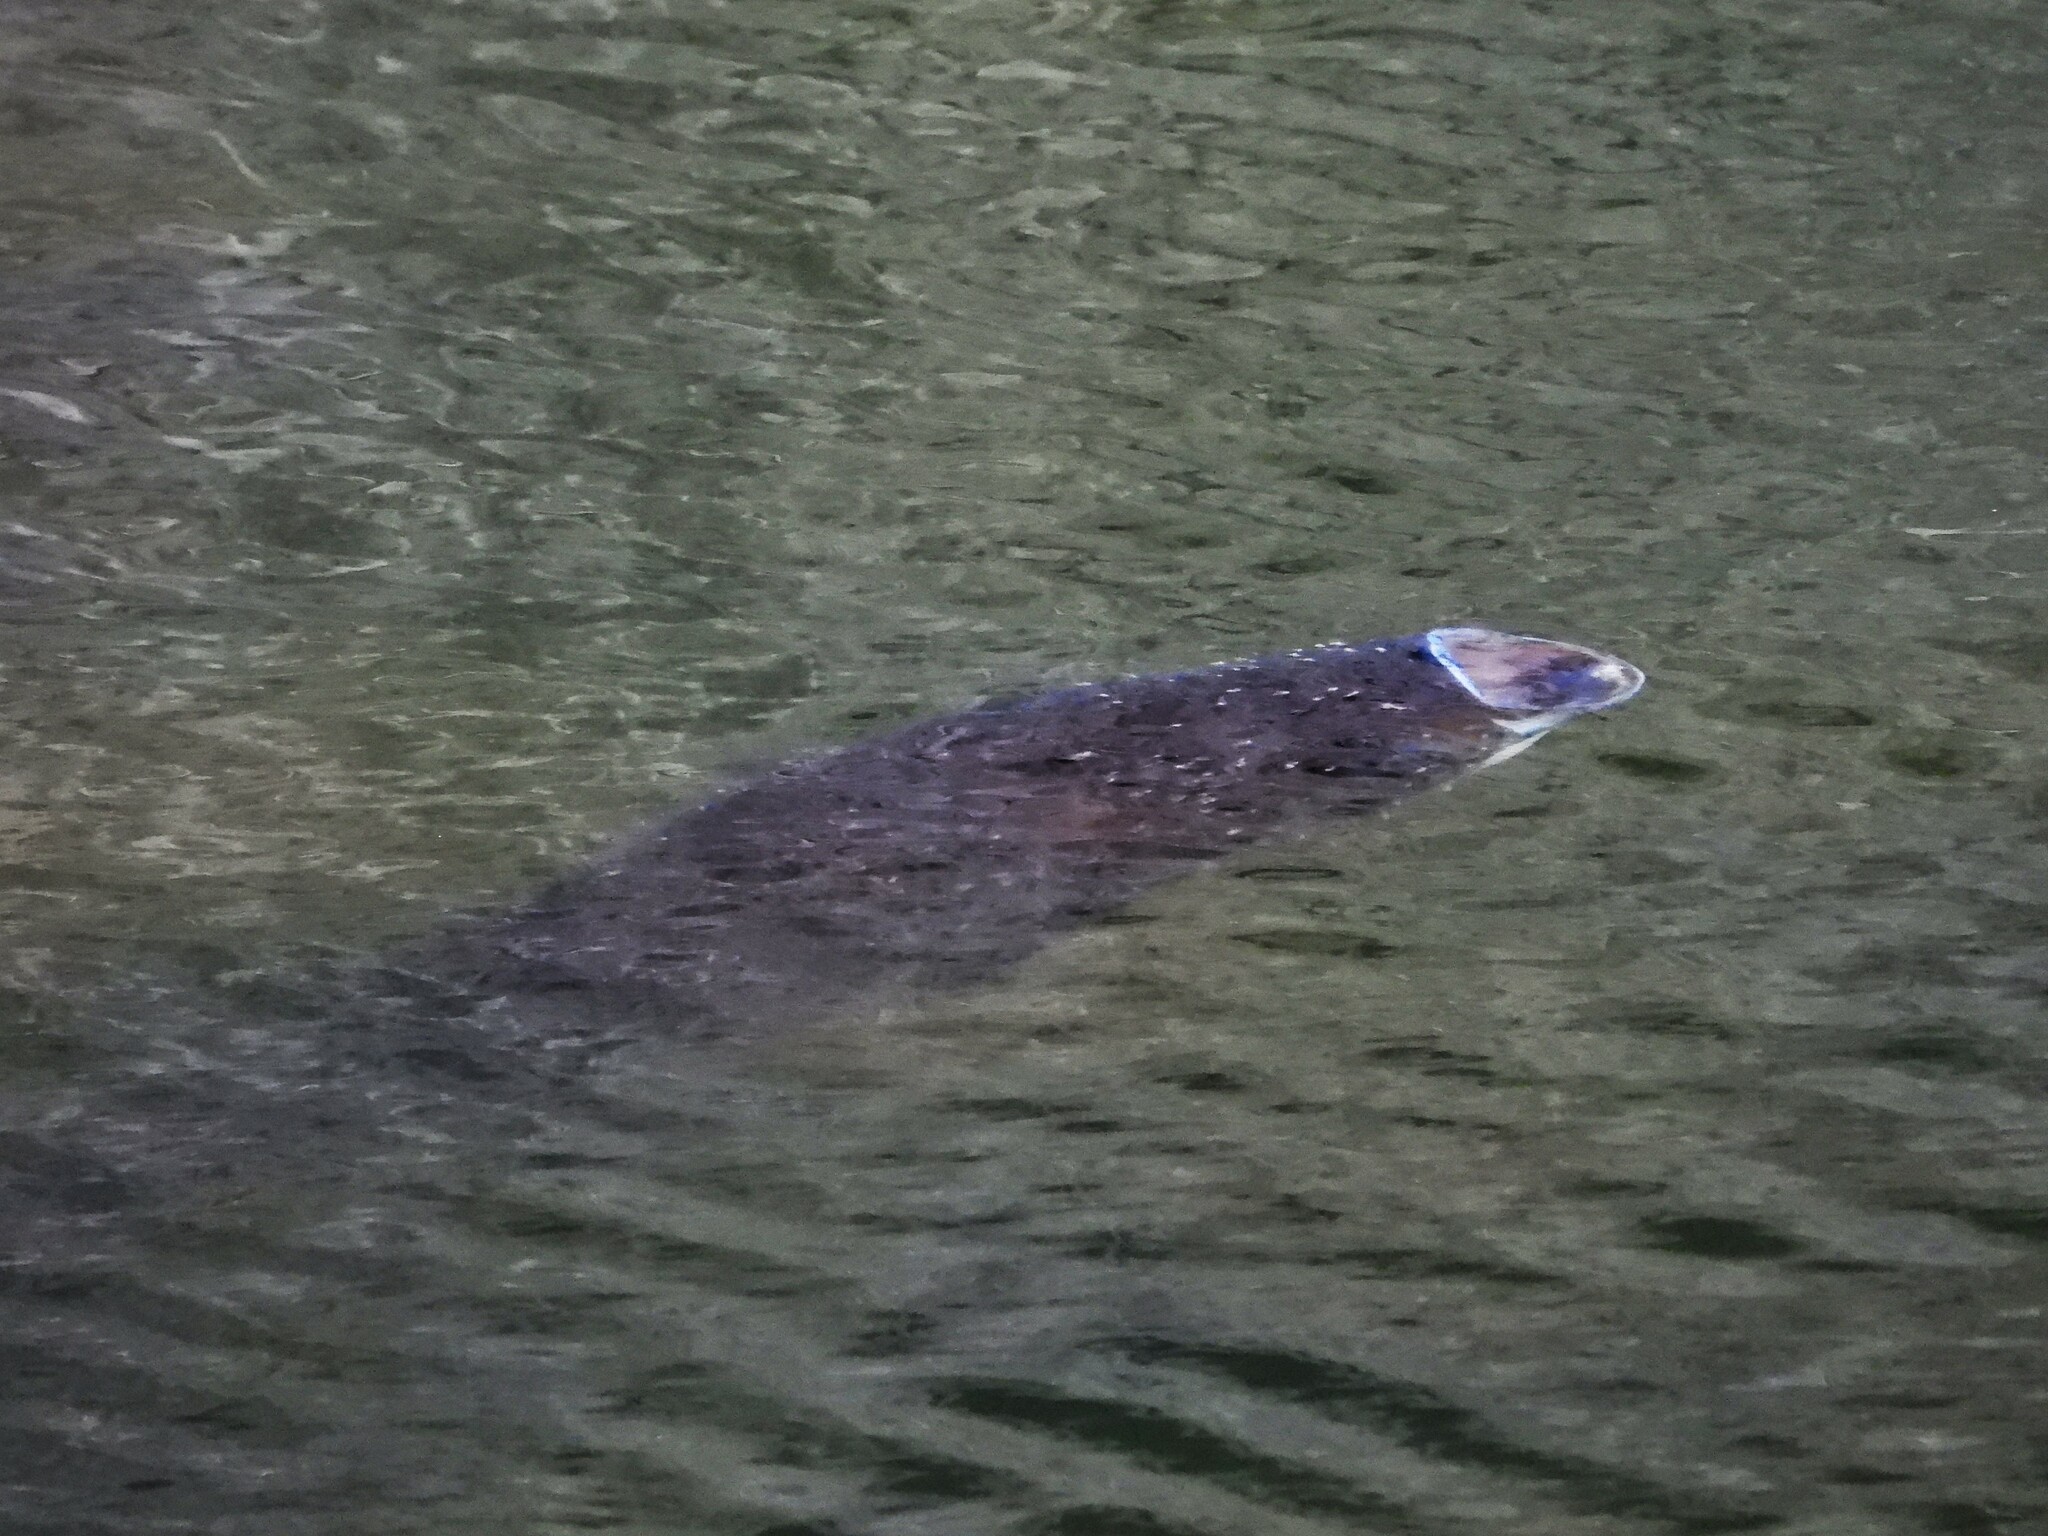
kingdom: Animalia
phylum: Chordata
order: Cypriniformes
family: Cyprinidae
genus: Hypophthalmichthys
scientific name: Hypophthalmichthys nobilis
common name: Bighead carp
